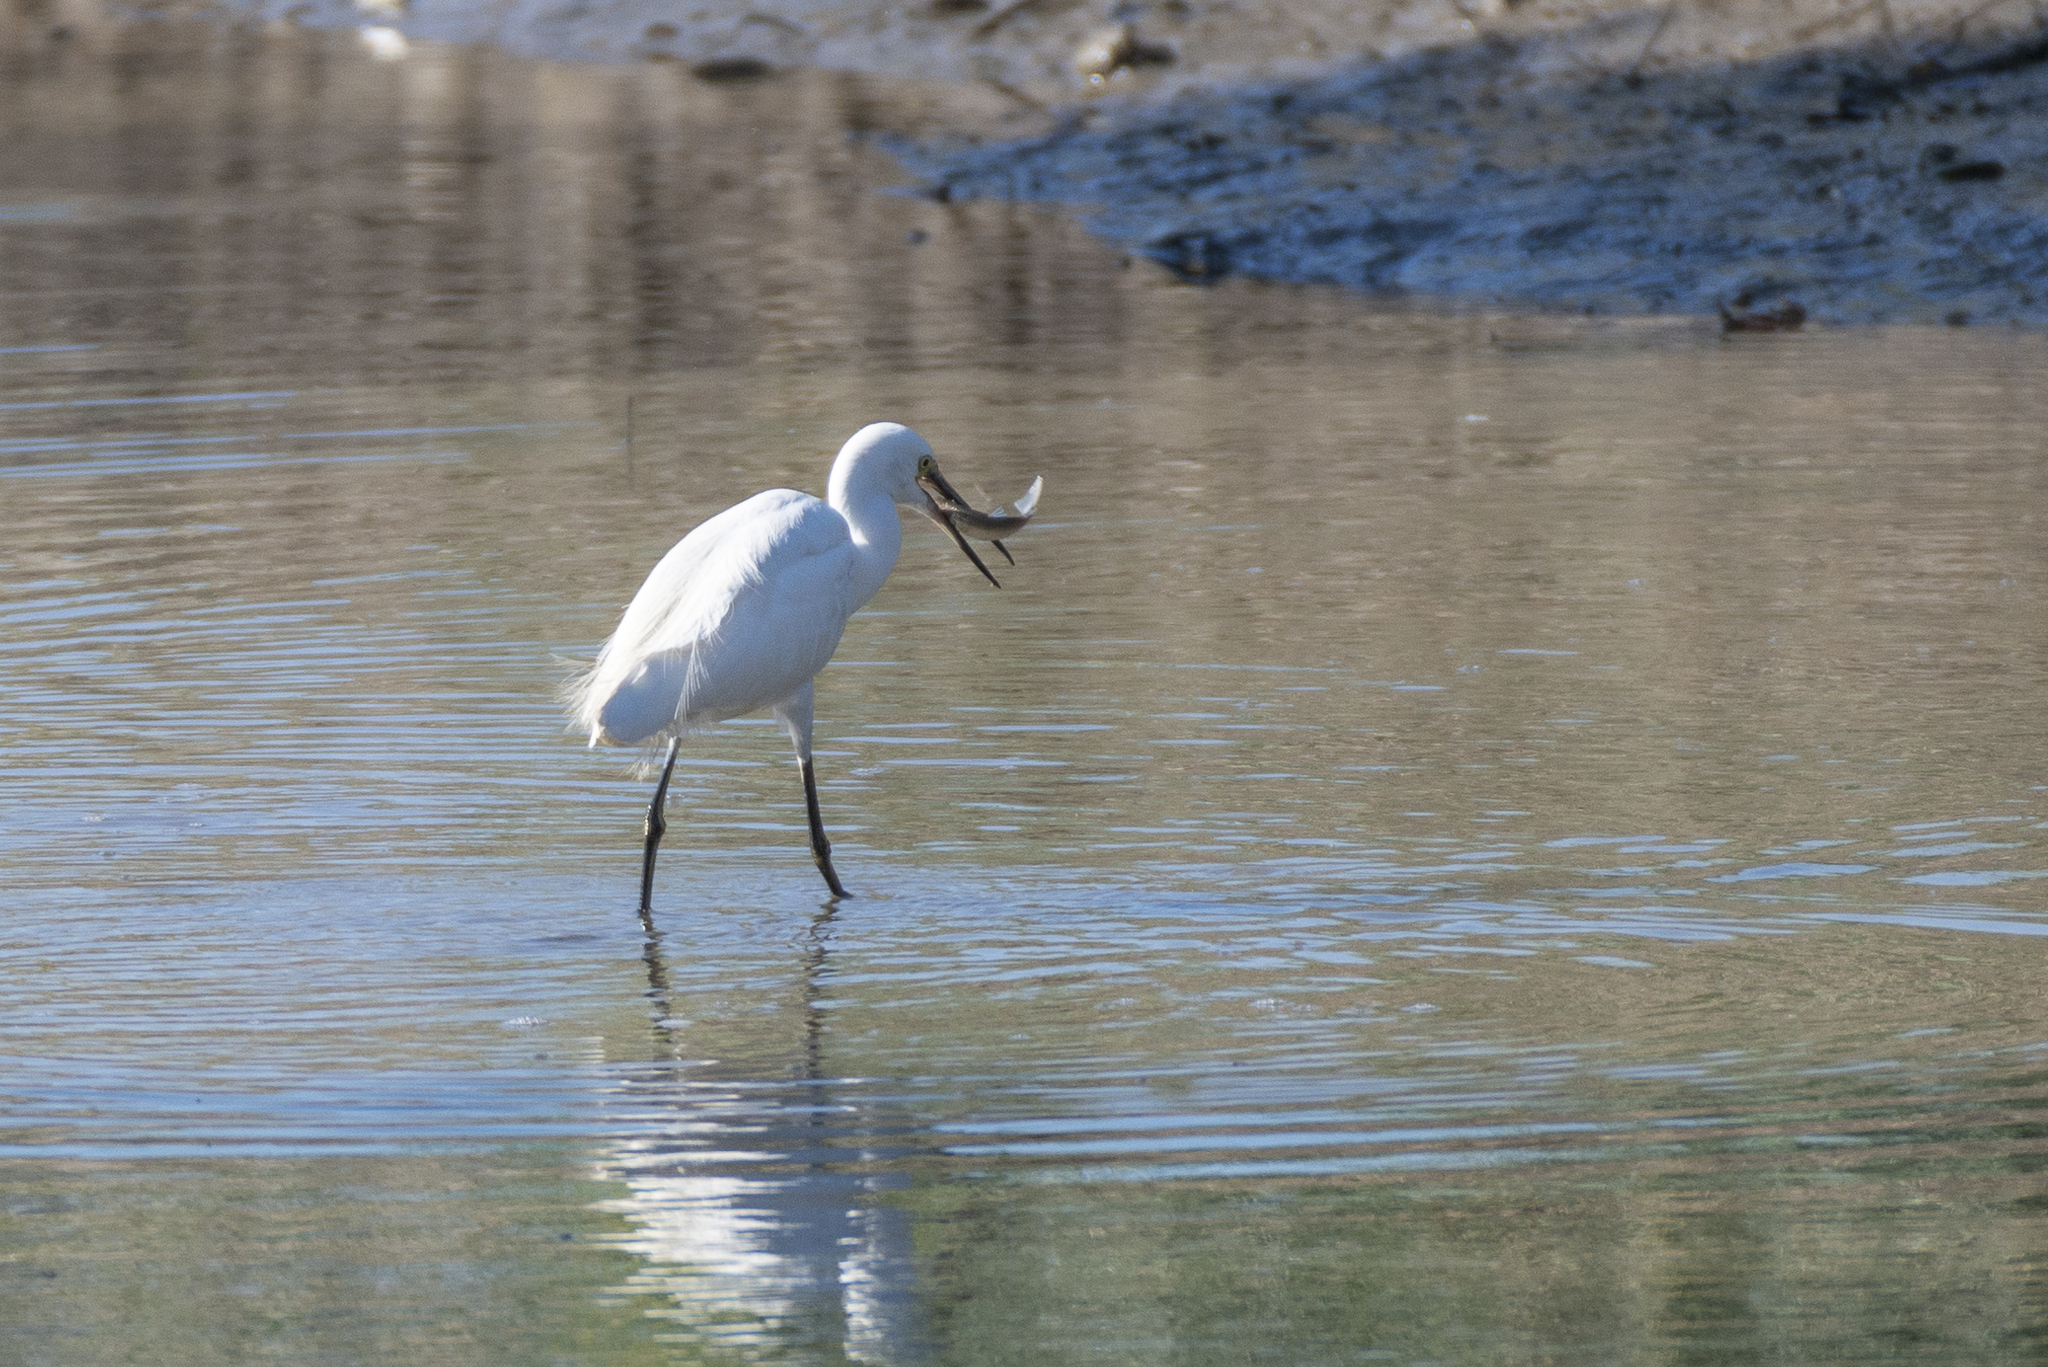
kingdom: Animalia
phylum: Chordata
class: Aves
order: Pelecaniformes
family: Ardeidae
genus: Egretta
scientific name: Egretta garzetta
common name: Little egret
